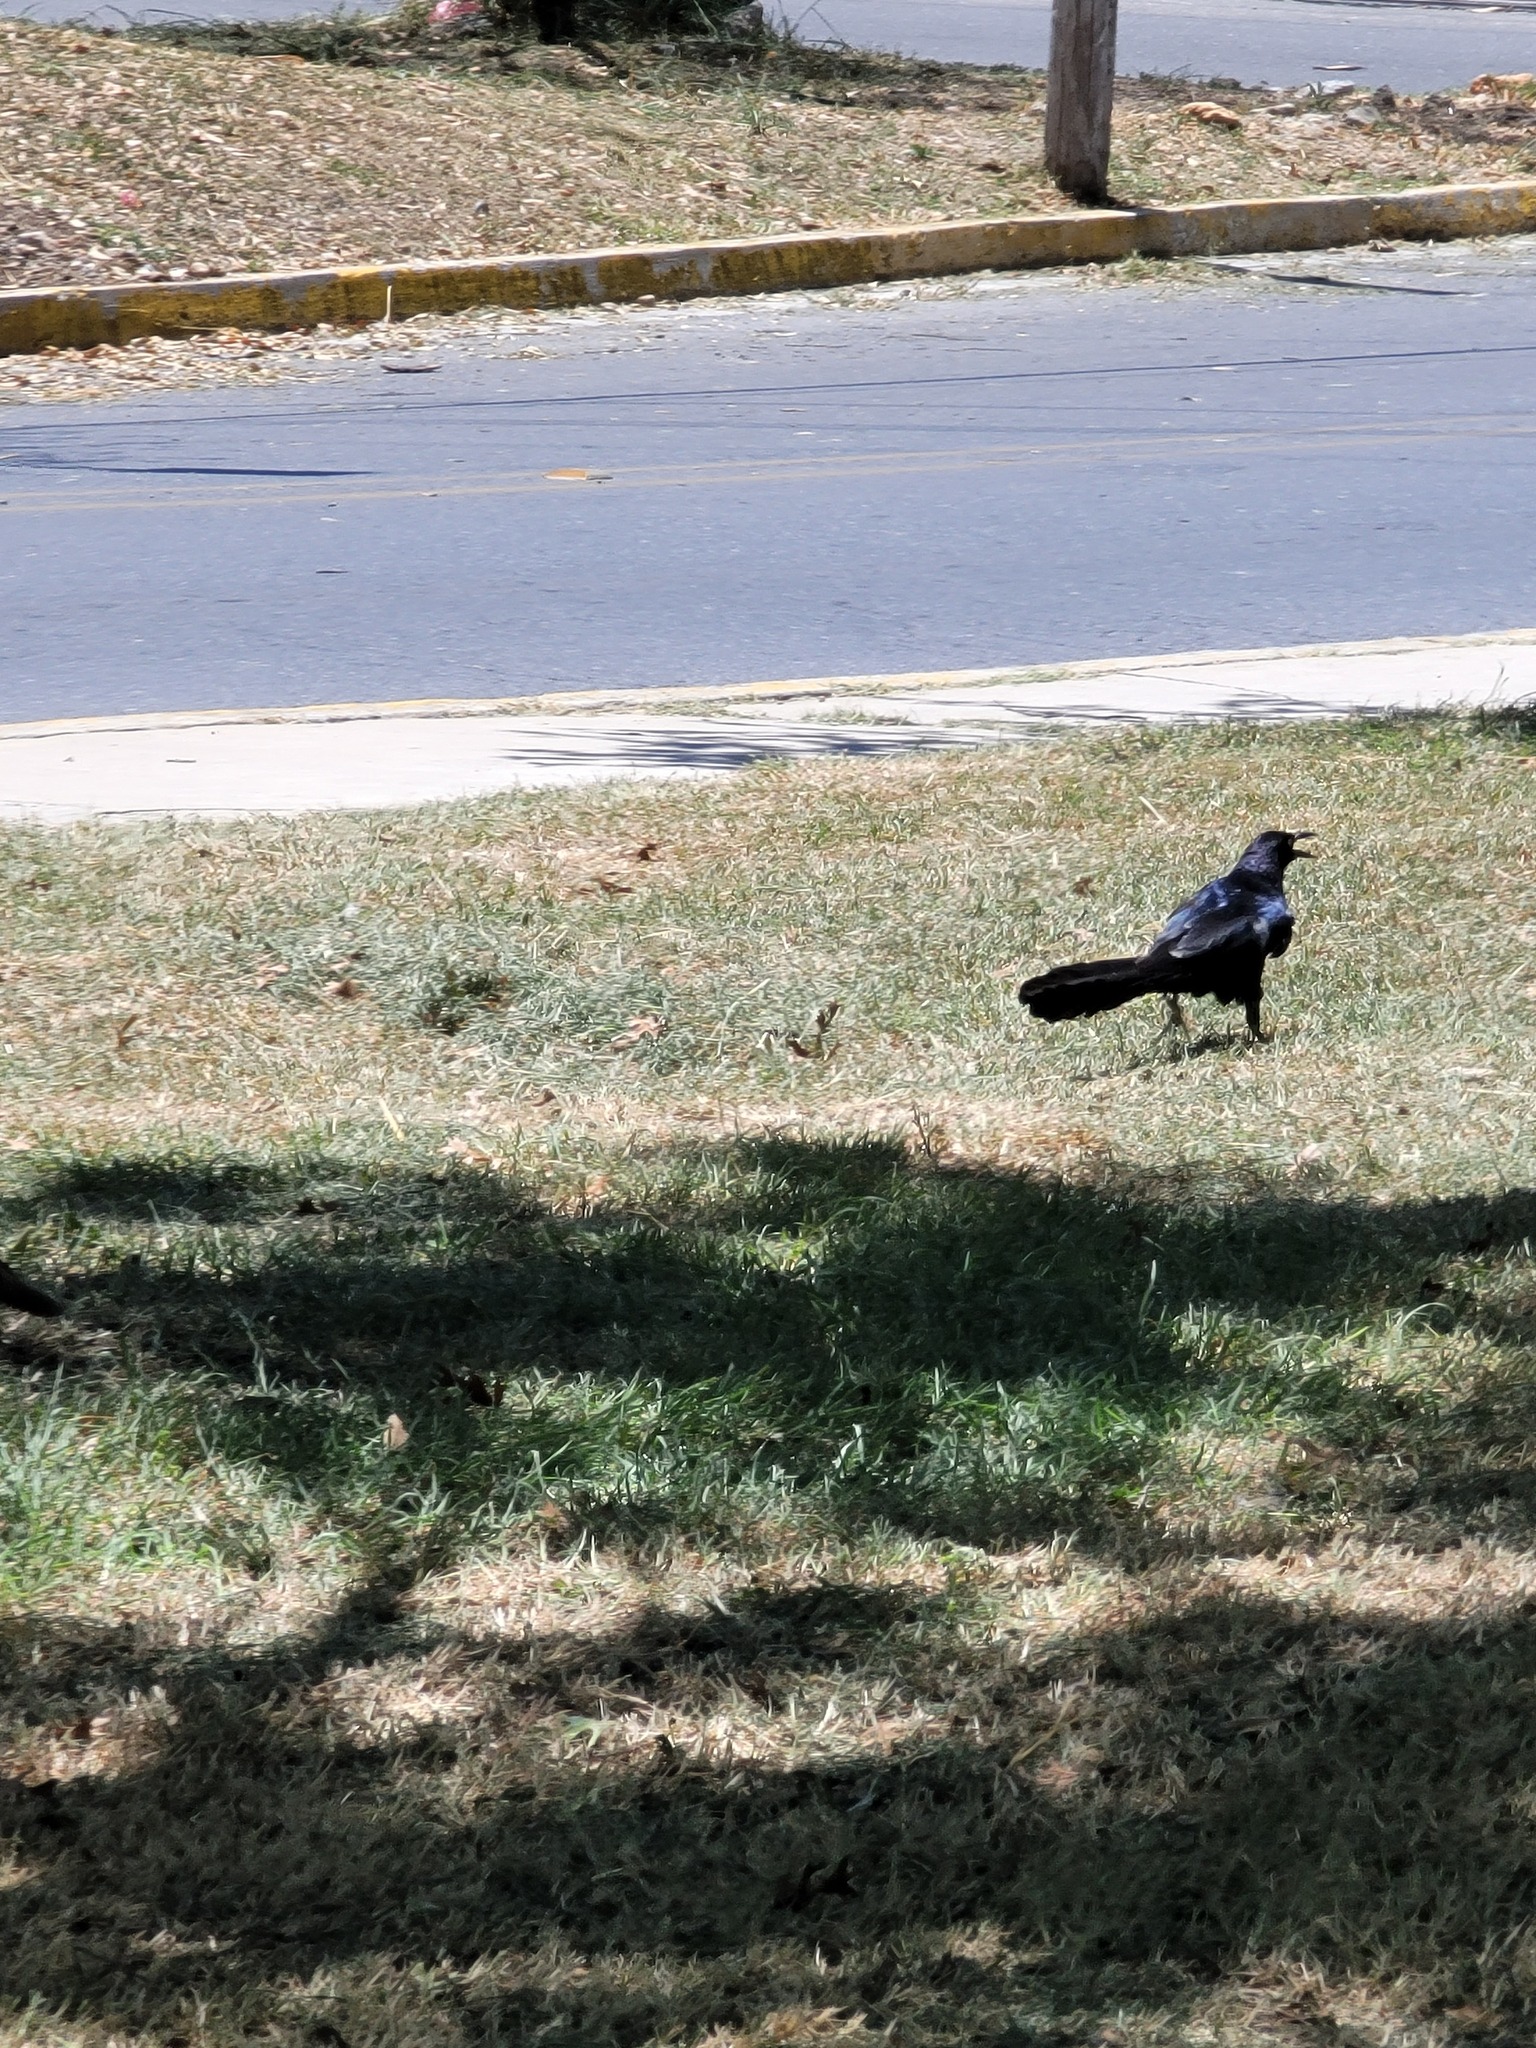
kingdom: Animalia
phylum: Chordata
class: Aves
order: Passeriformes
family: Icteridae
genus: Quiscalus
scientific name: Quiscalus mexicanus
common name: Great-tailed grackle
